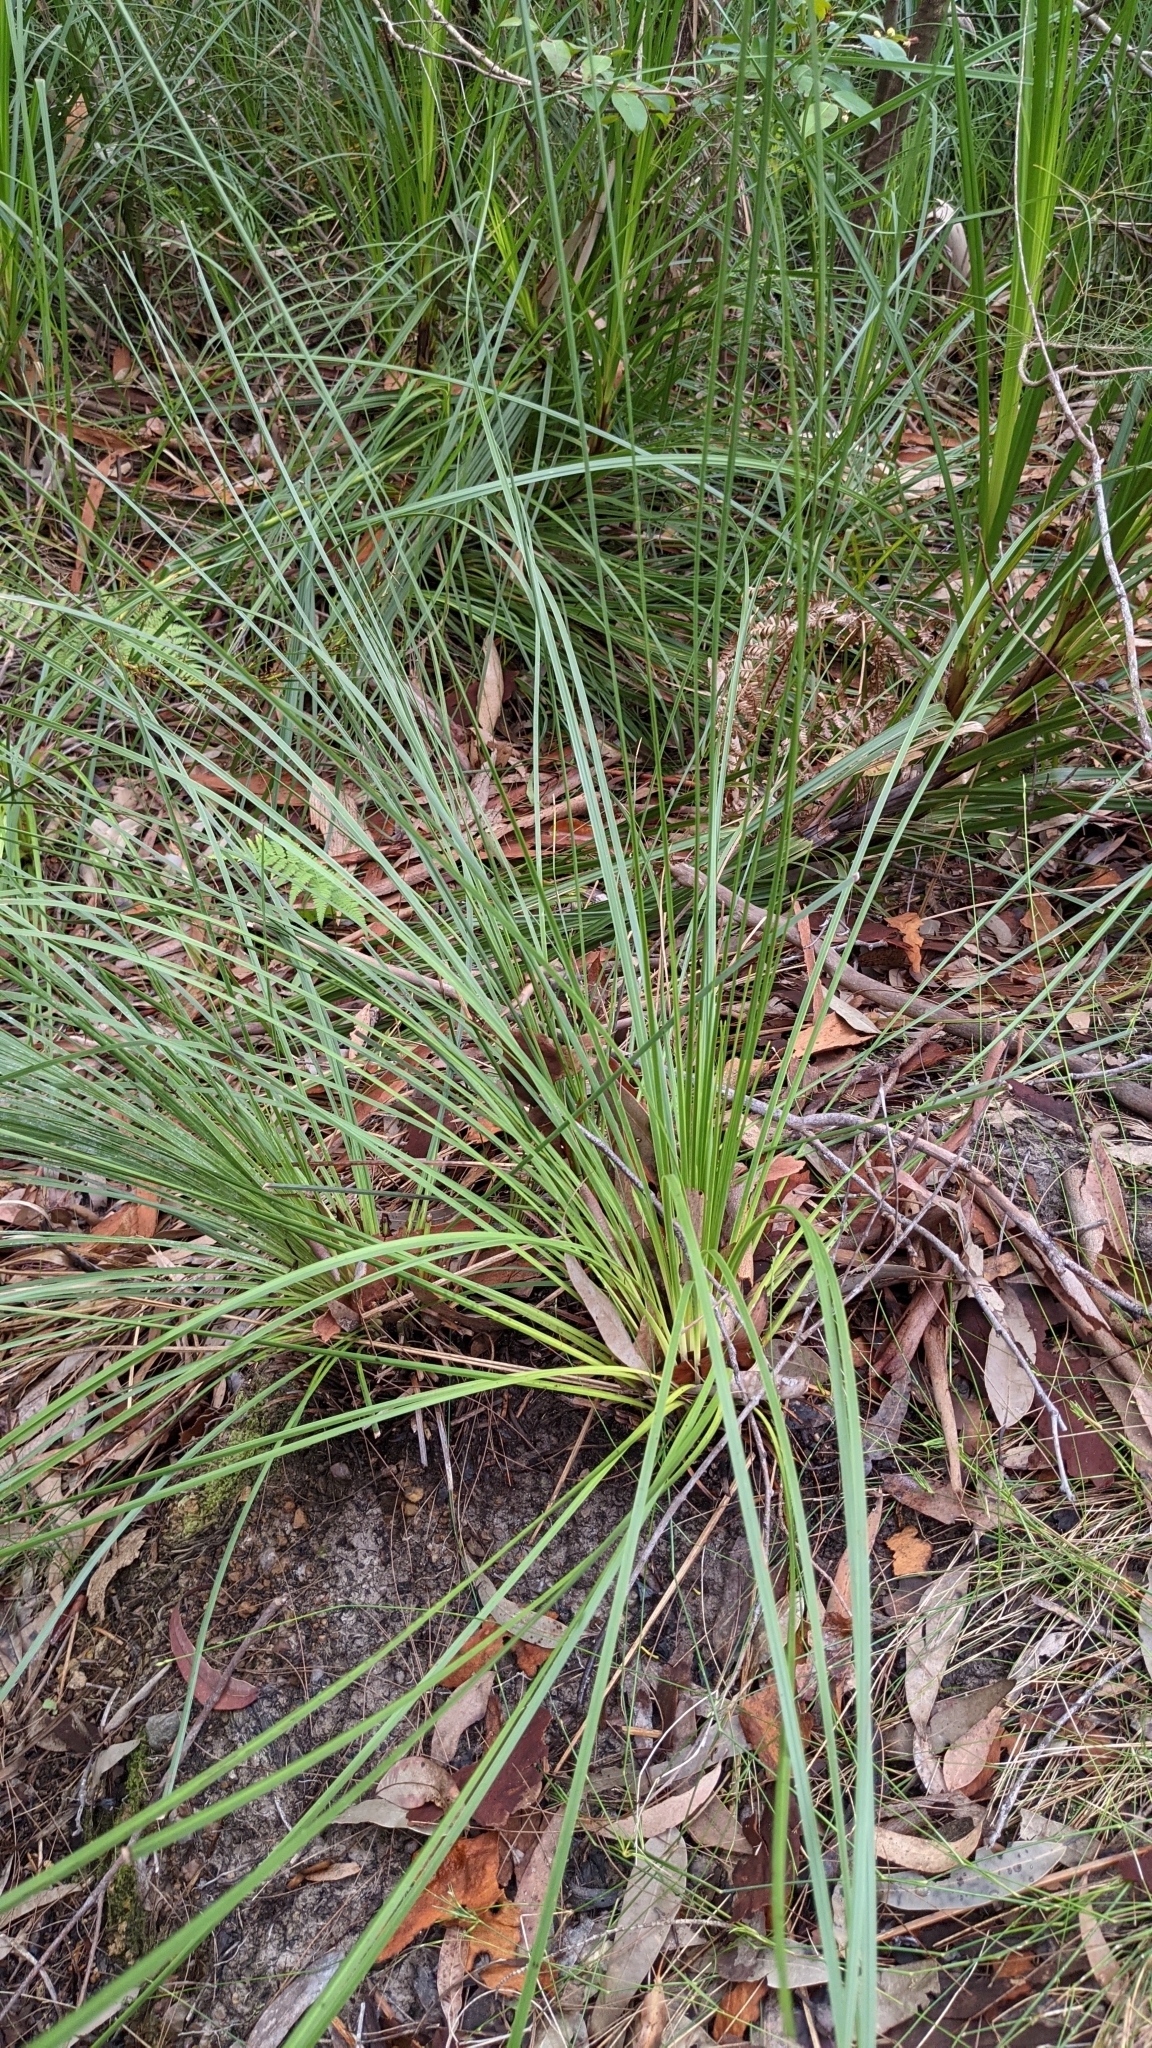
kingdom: Plantae
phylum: Tracheophyta
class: Liliopsida
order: Asparagales
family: Asphodelaceae
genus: Xanthorrhoea
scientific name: Xanthorrhoea macronema
